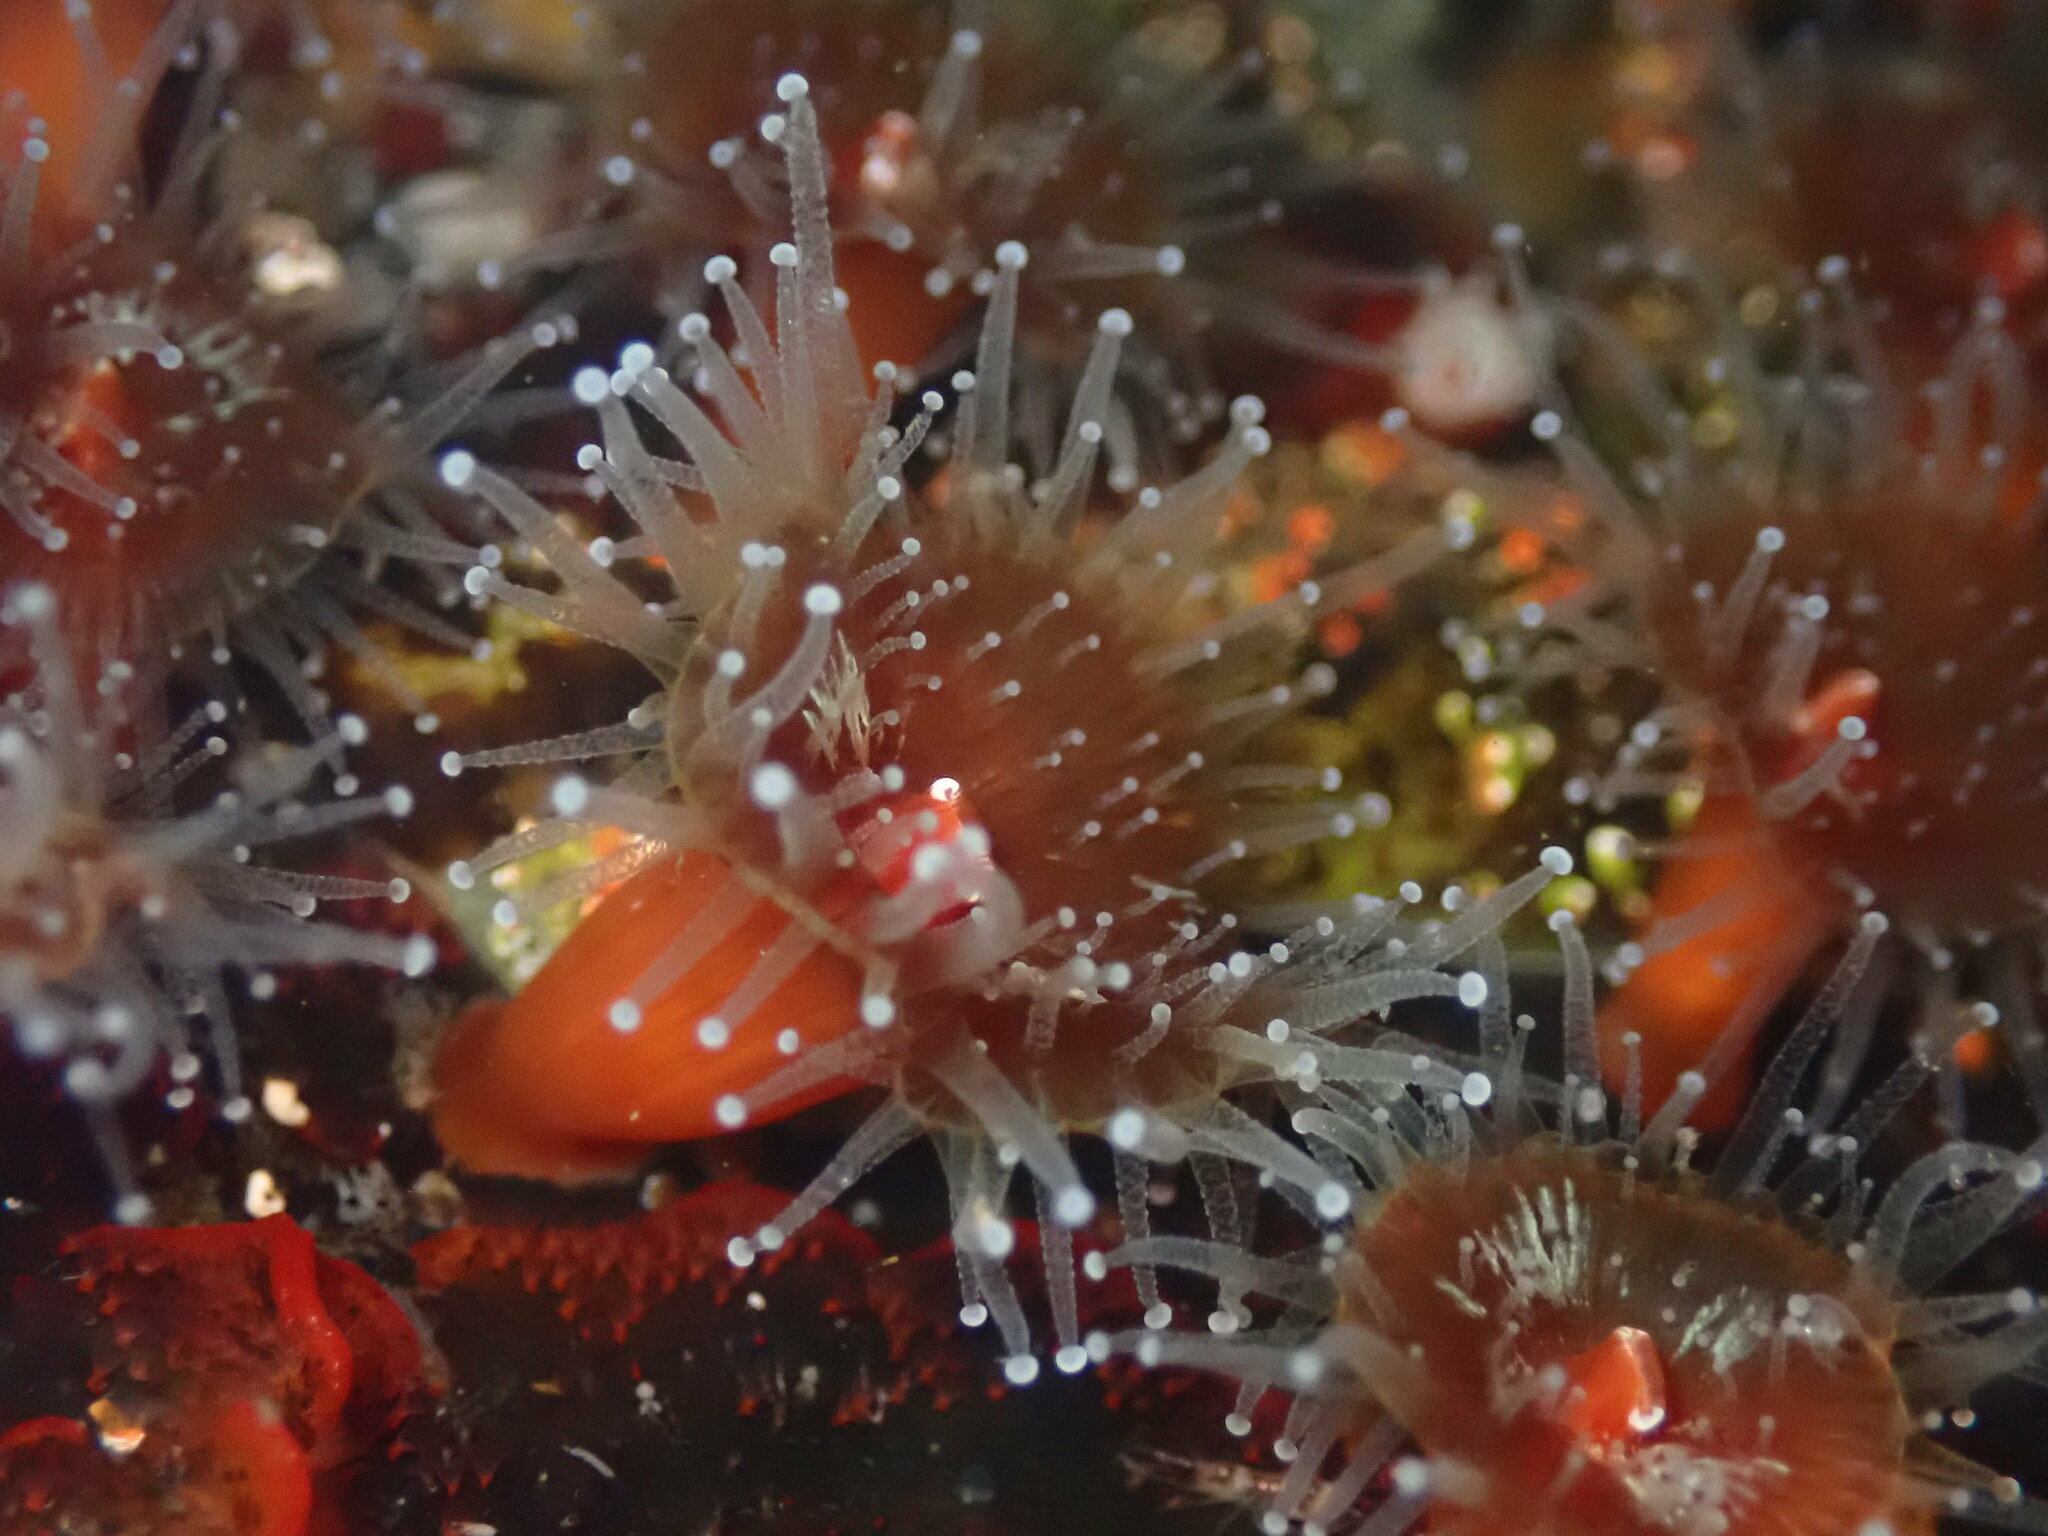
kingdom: Animalia
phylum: Cnidaria
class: Anthozoa
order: Corallimorpharia
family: Corallimorphidae
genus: Corynactis
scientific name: Corynactis californica
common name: Strawberry corallimorpharian
